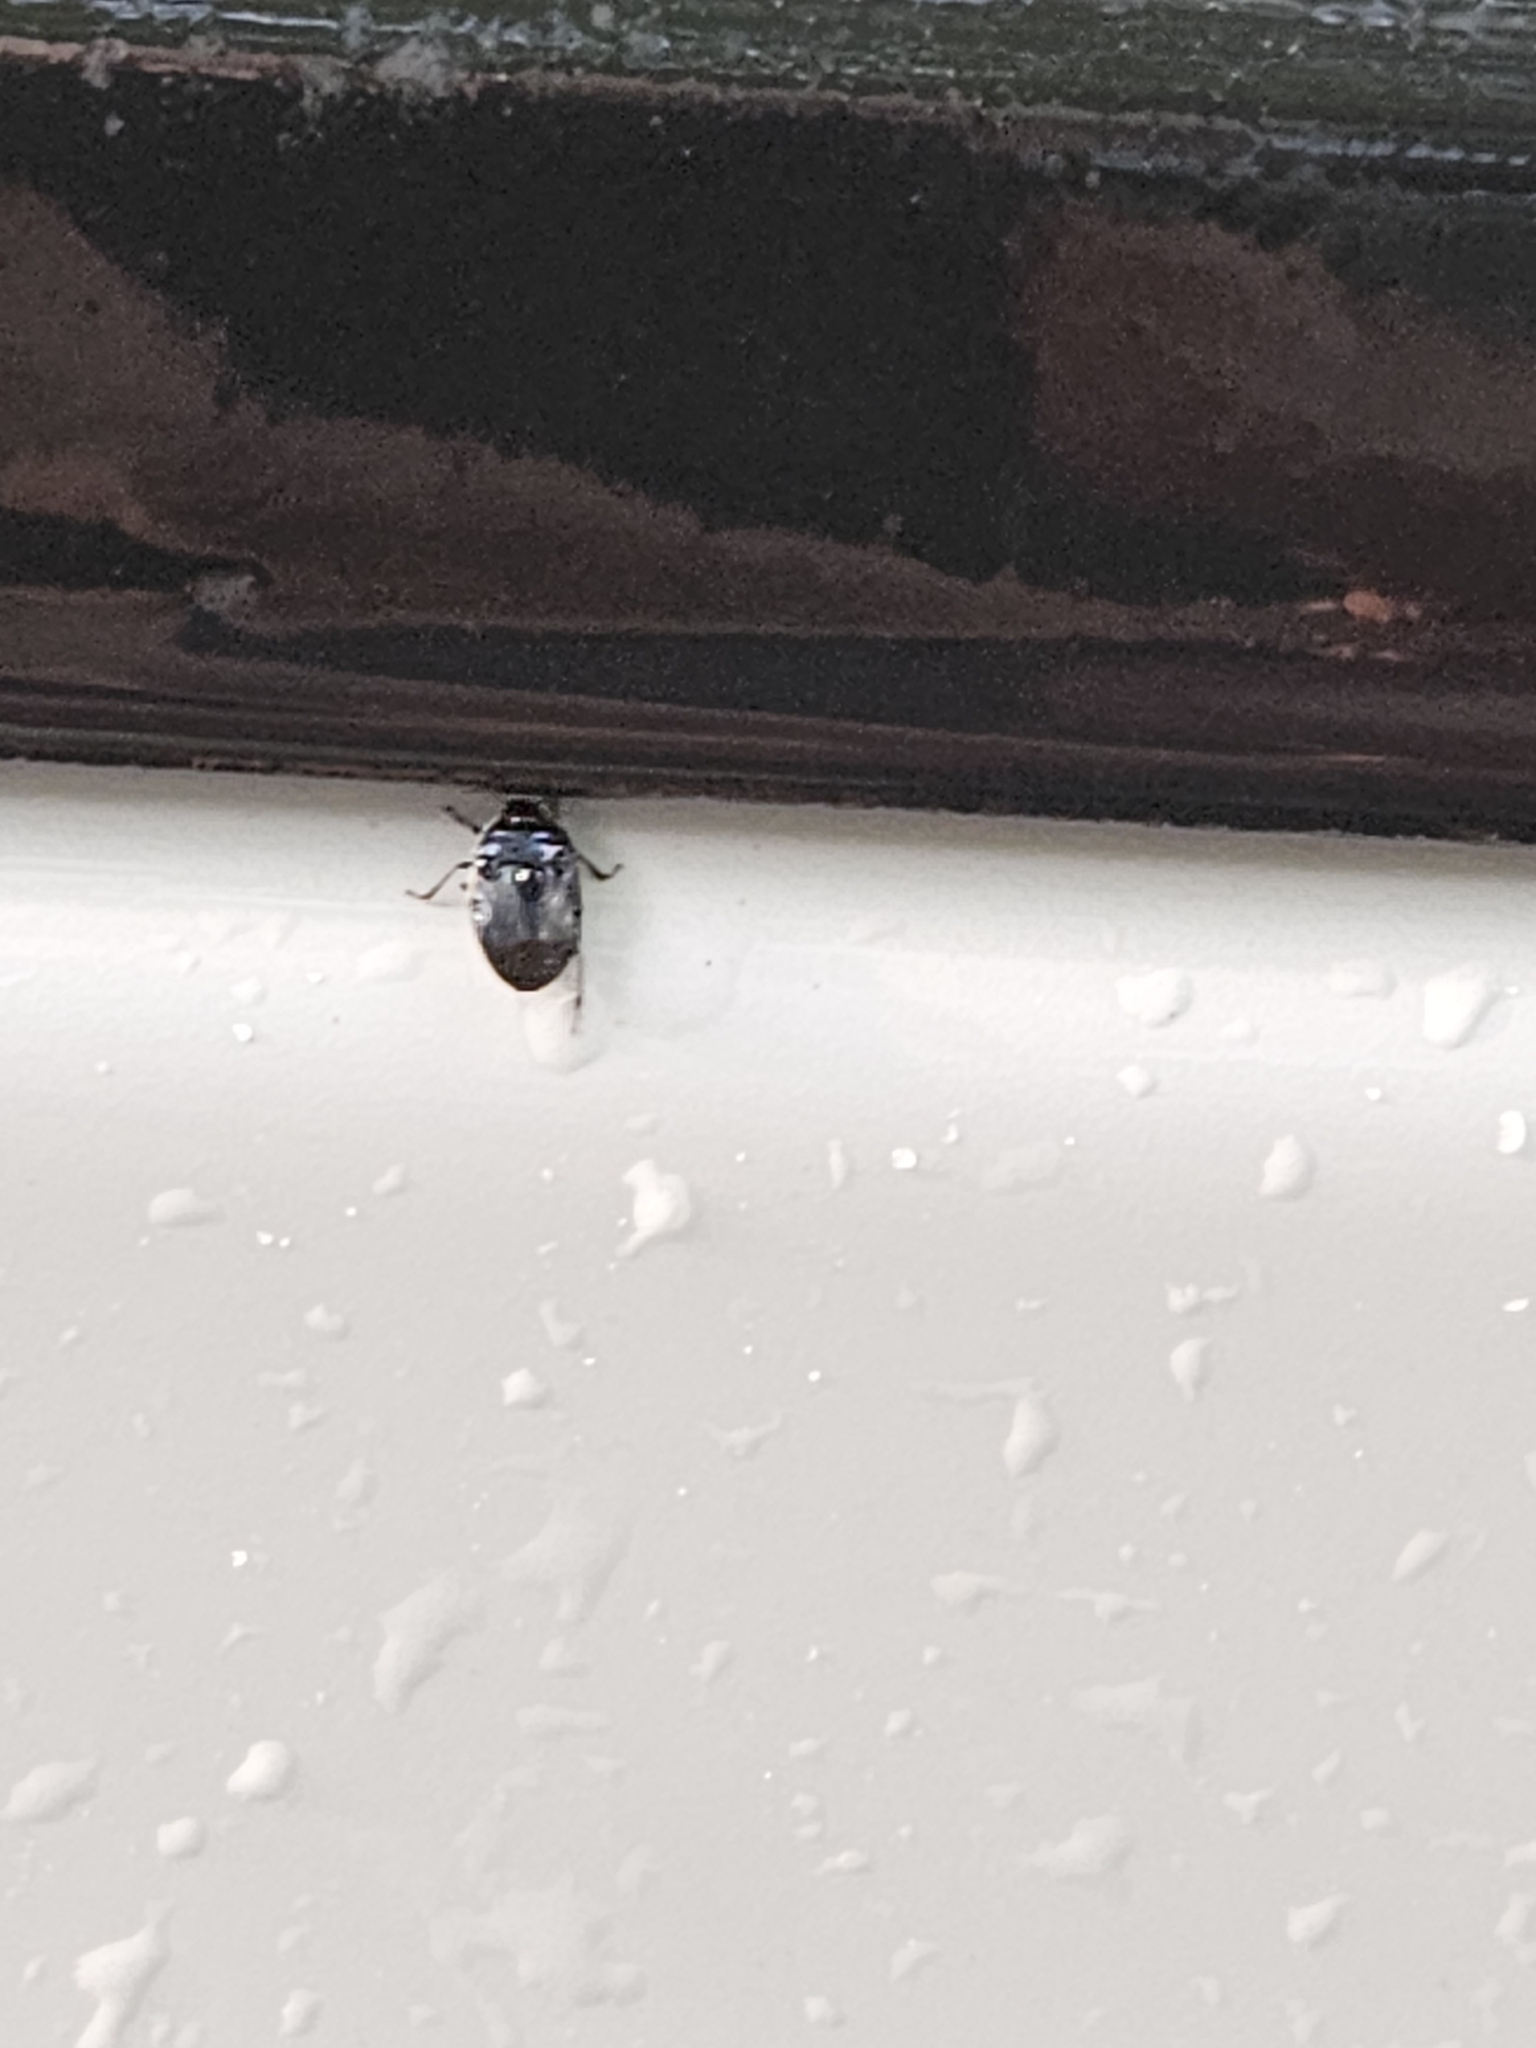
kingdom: Animalia
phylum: Arthropoda
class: Insecta
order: Hemiptera
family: Cydnidae
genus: Sehirus
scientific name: Sehirus cinctus
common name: White-margined burrower bug
